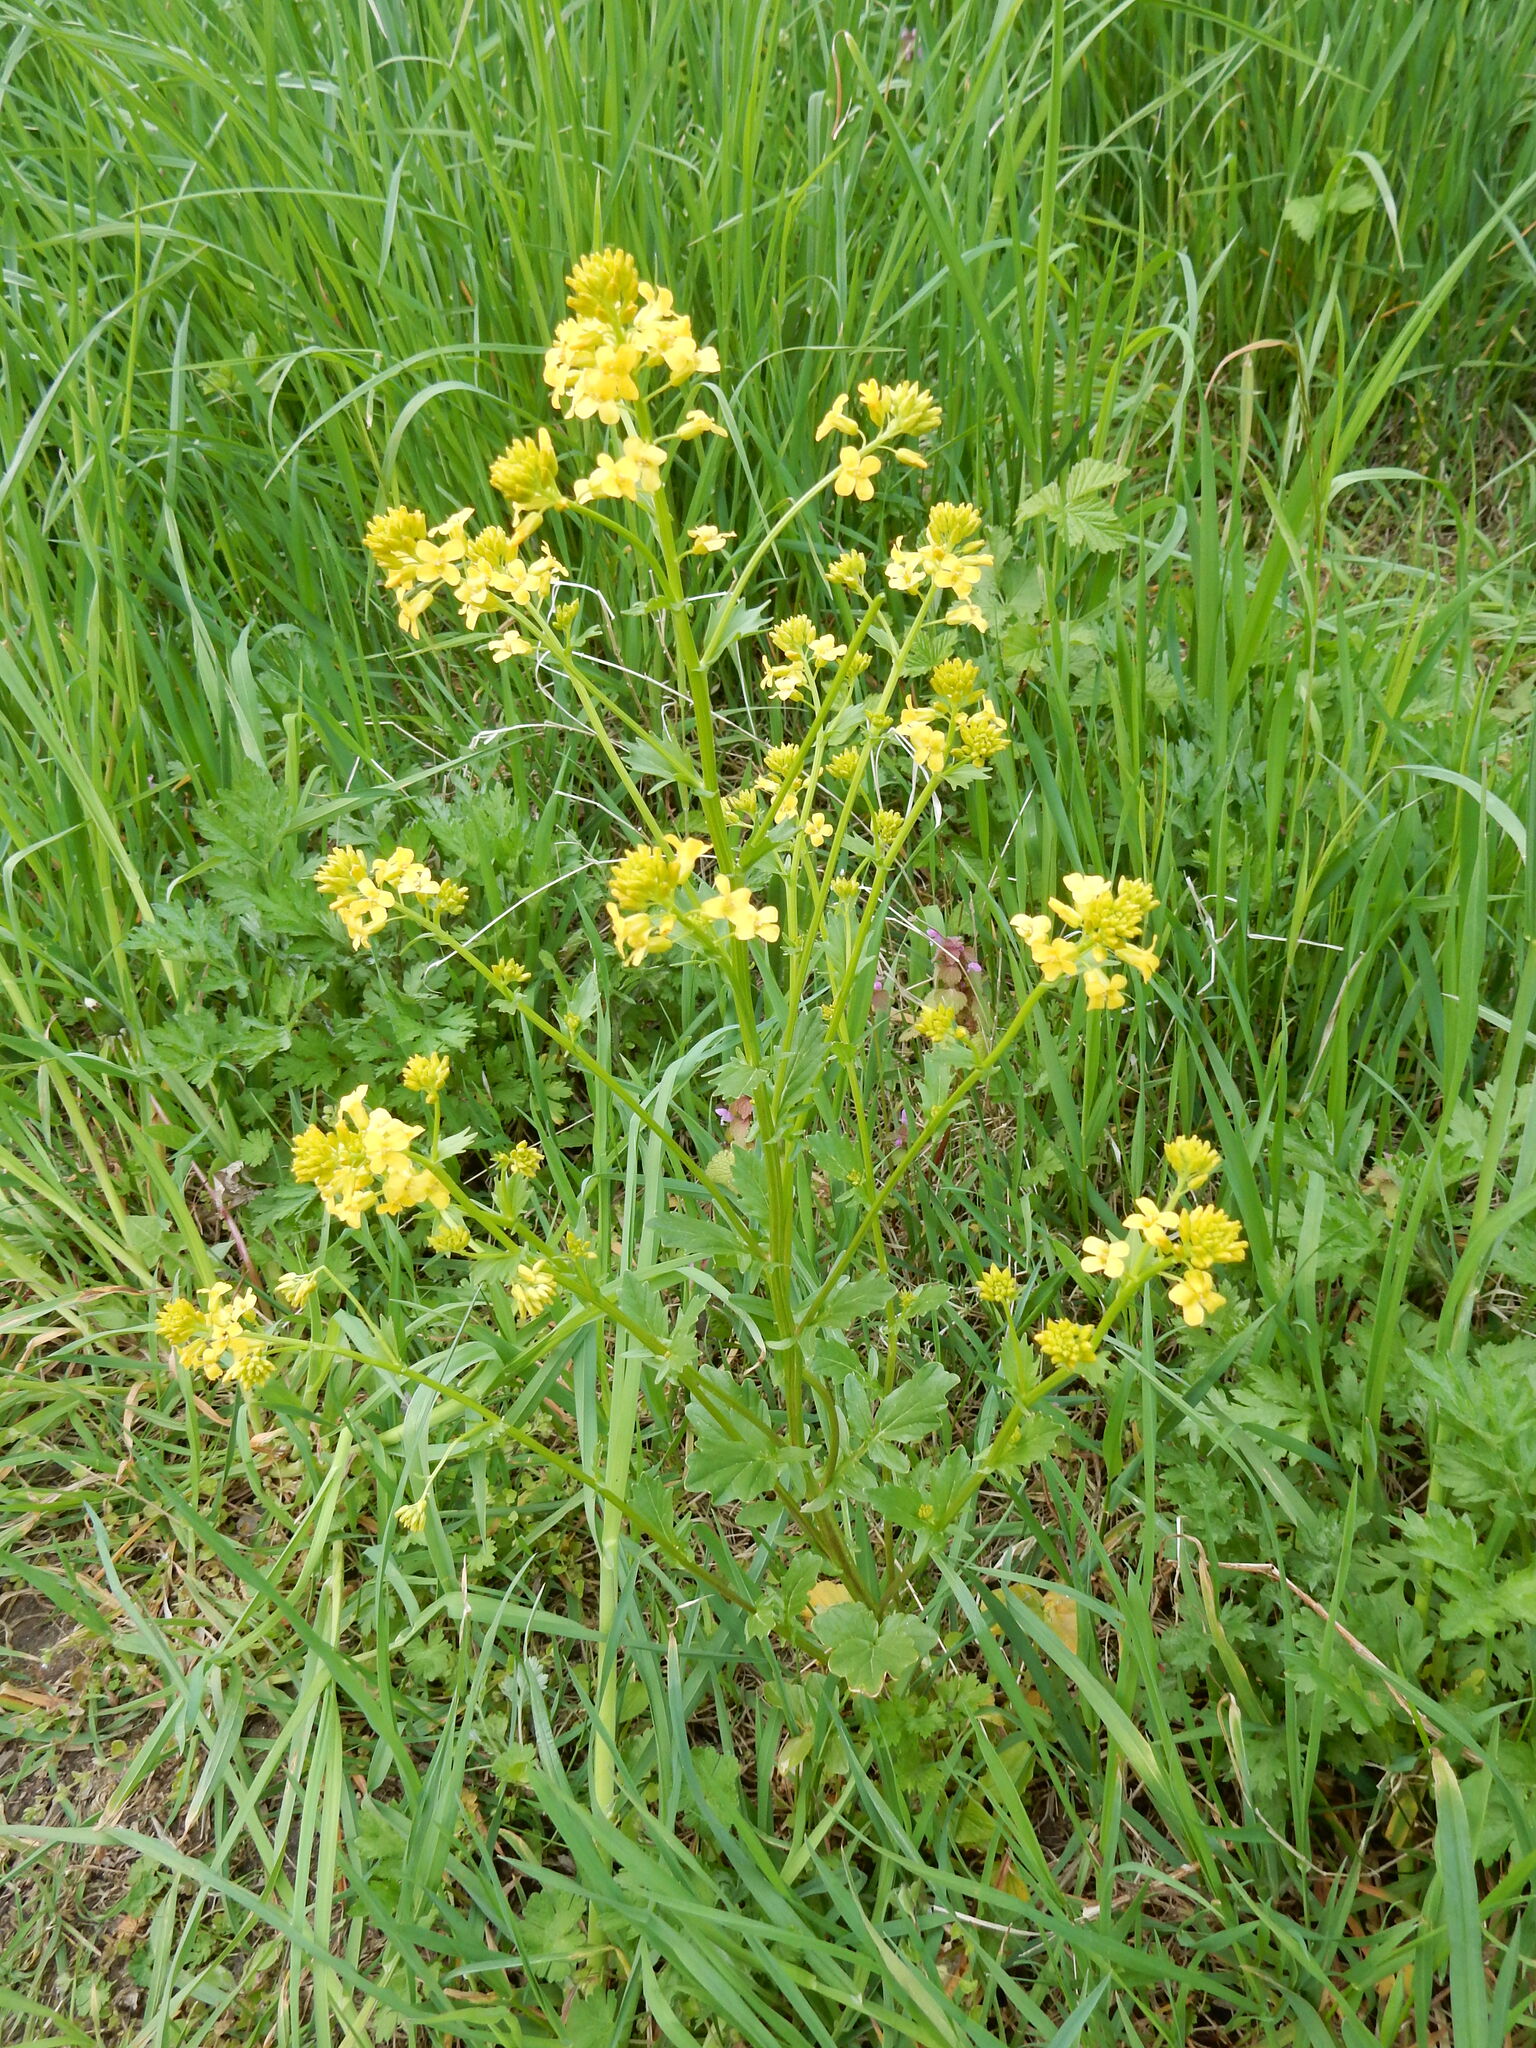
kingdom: Plantae
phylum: Tracheophyta
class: Magnoliopsida
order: Brassicales
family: Brassicaceae
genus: Barbarea
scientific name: Barbarea vulgaris
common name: Cressy-greens
